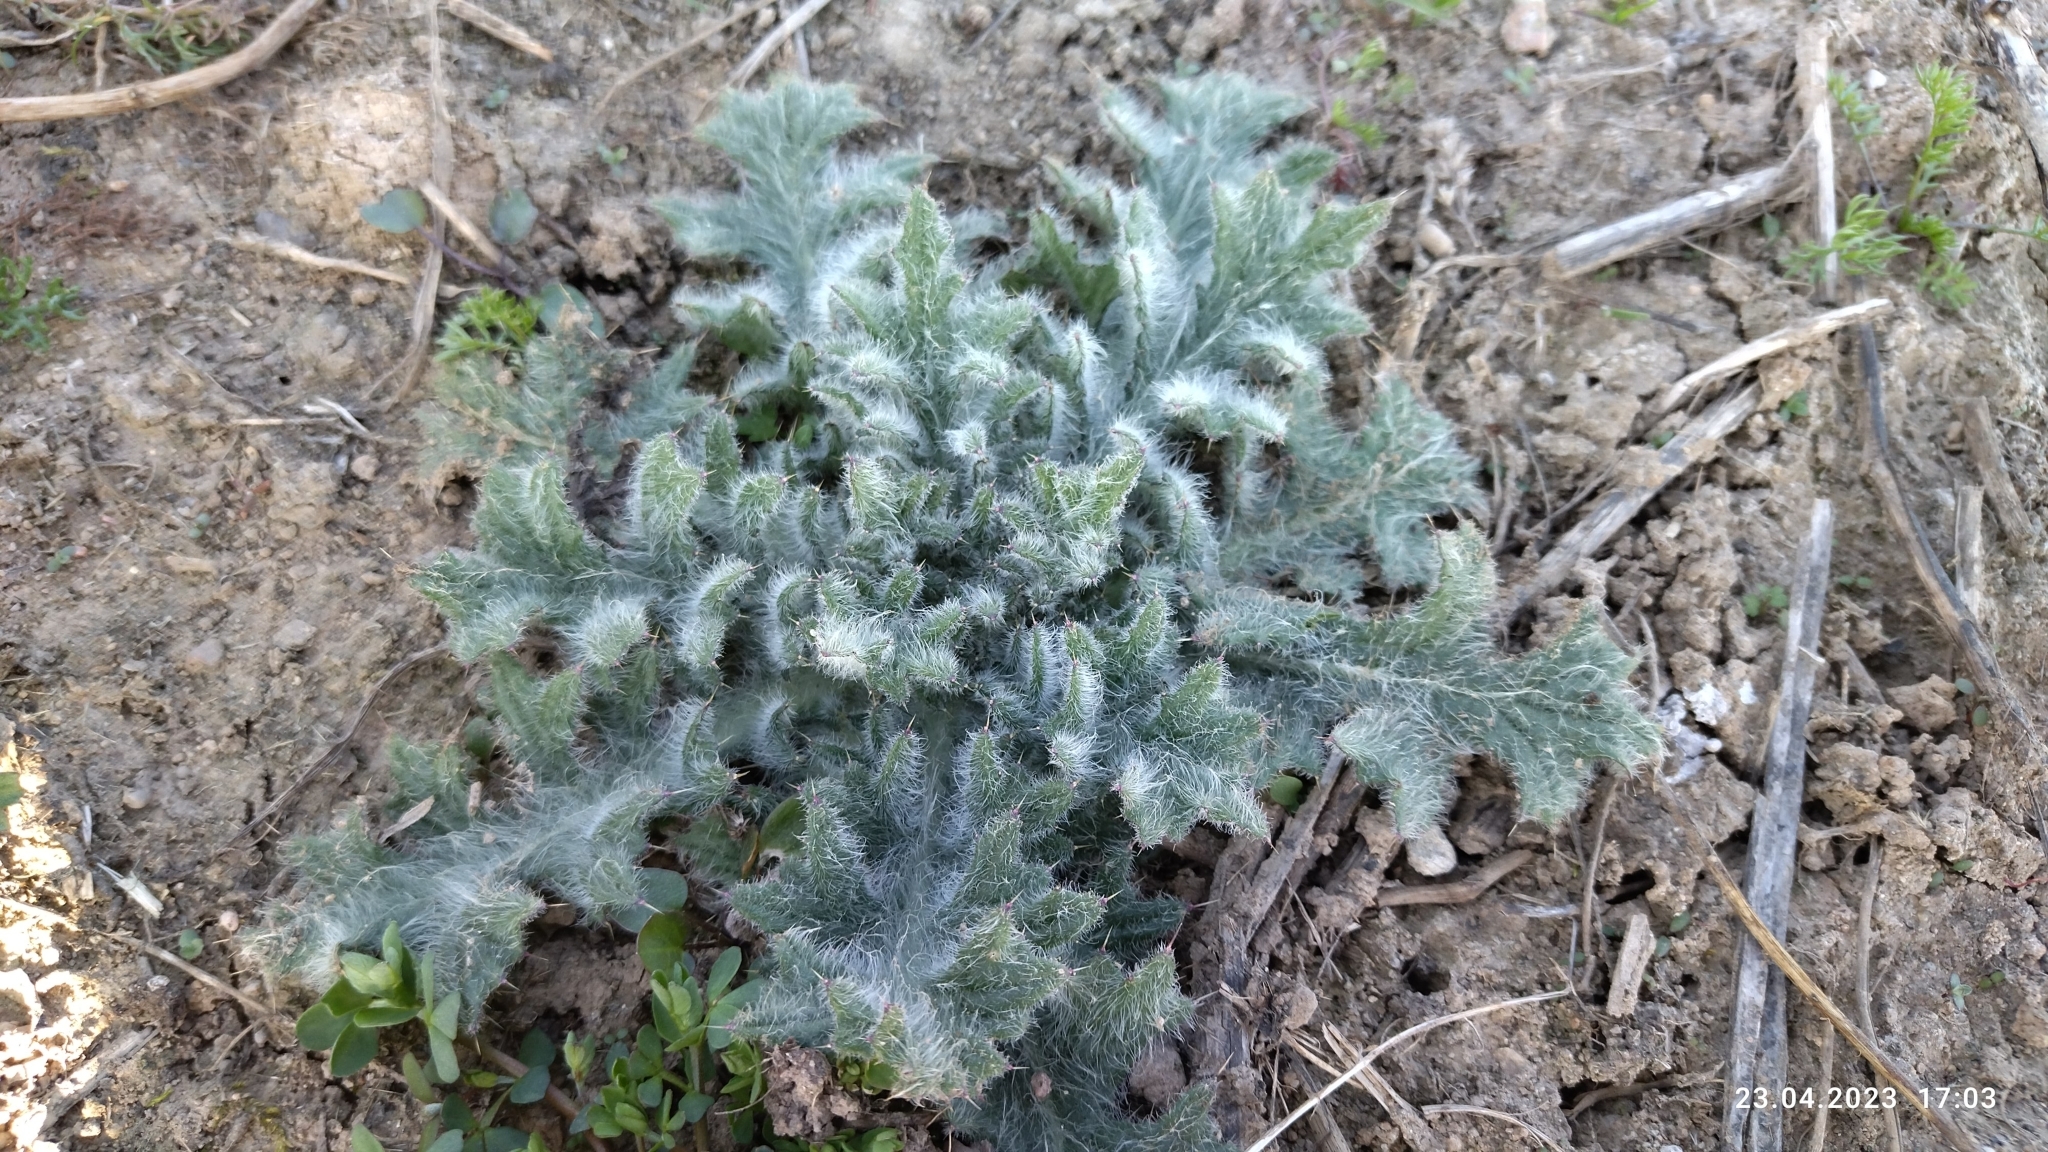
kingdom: Plantae
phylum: Tracheophyta
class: Magnoliopsida
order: Asterales
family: Asteraceae
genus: Cirsium
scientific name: Cirsium vulgare
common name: Bull thistle
